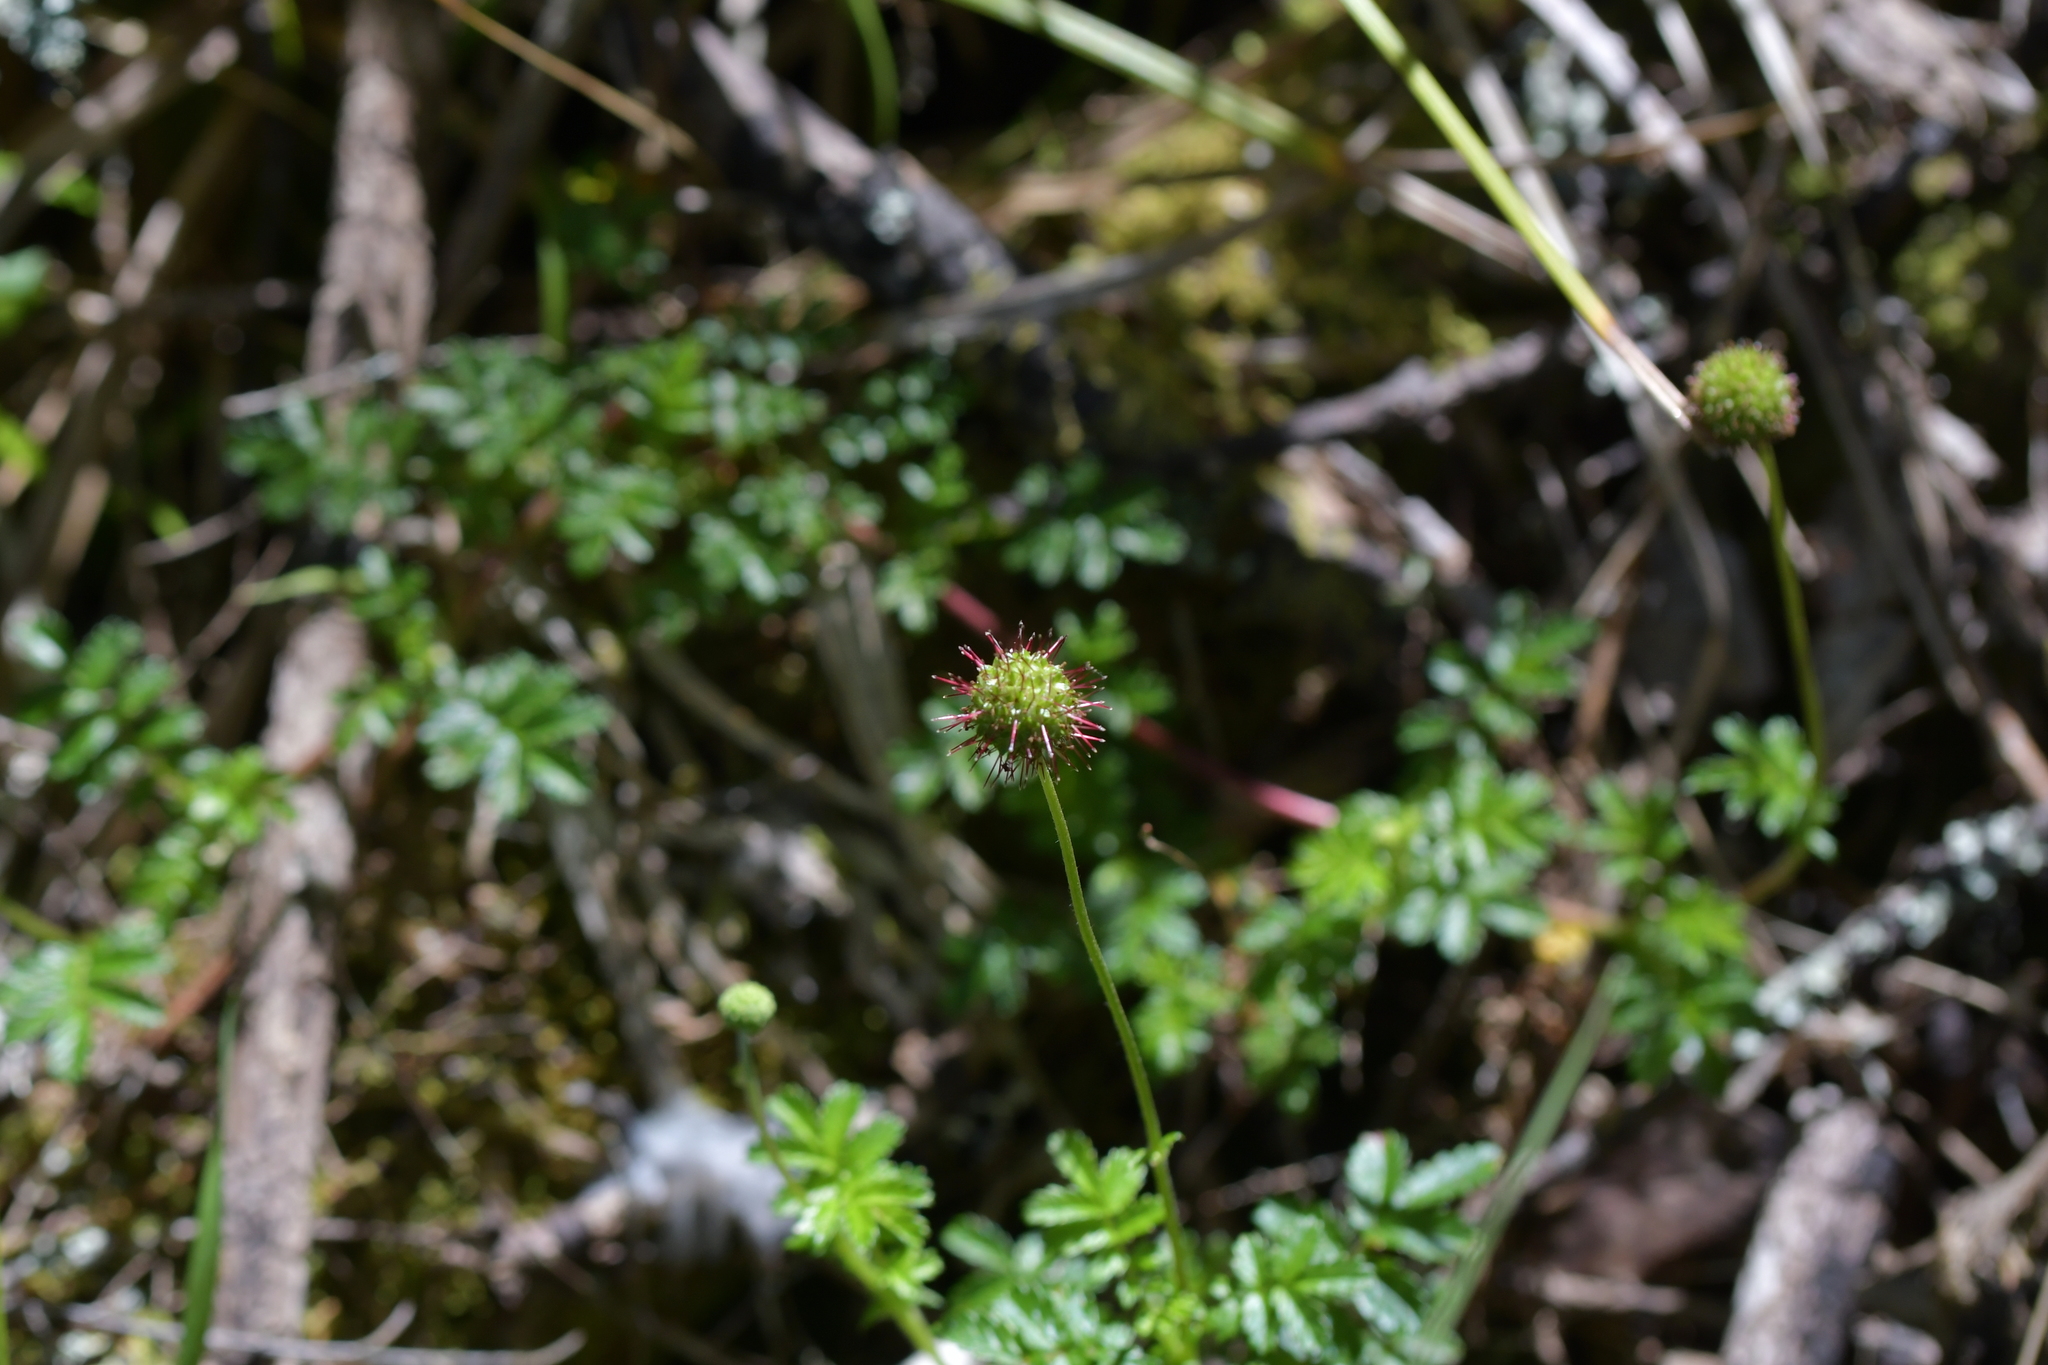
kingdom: Plantae
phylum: Tracheophyta
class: Magnoliopsida
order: Rosales
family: Rosaceae
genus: Acaena
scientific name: Acaena novae-zelandiae
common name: Pirri-pirri-bur
